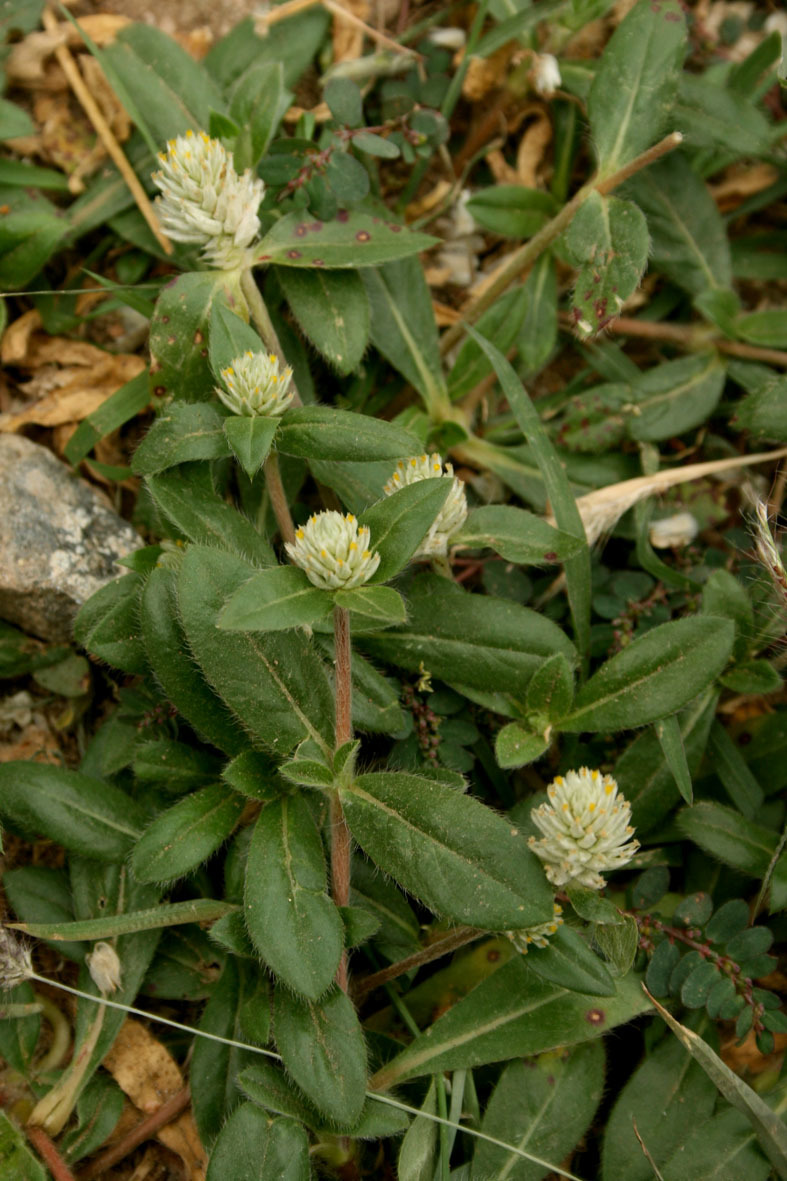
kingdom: Plantae
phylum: Tracheophyta
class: Magnoliopsida
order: Caryophyllales
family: Amaranthaceae
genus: Gomphrena
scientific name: Gomphrena celosioides
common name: Gomphrena-weed
